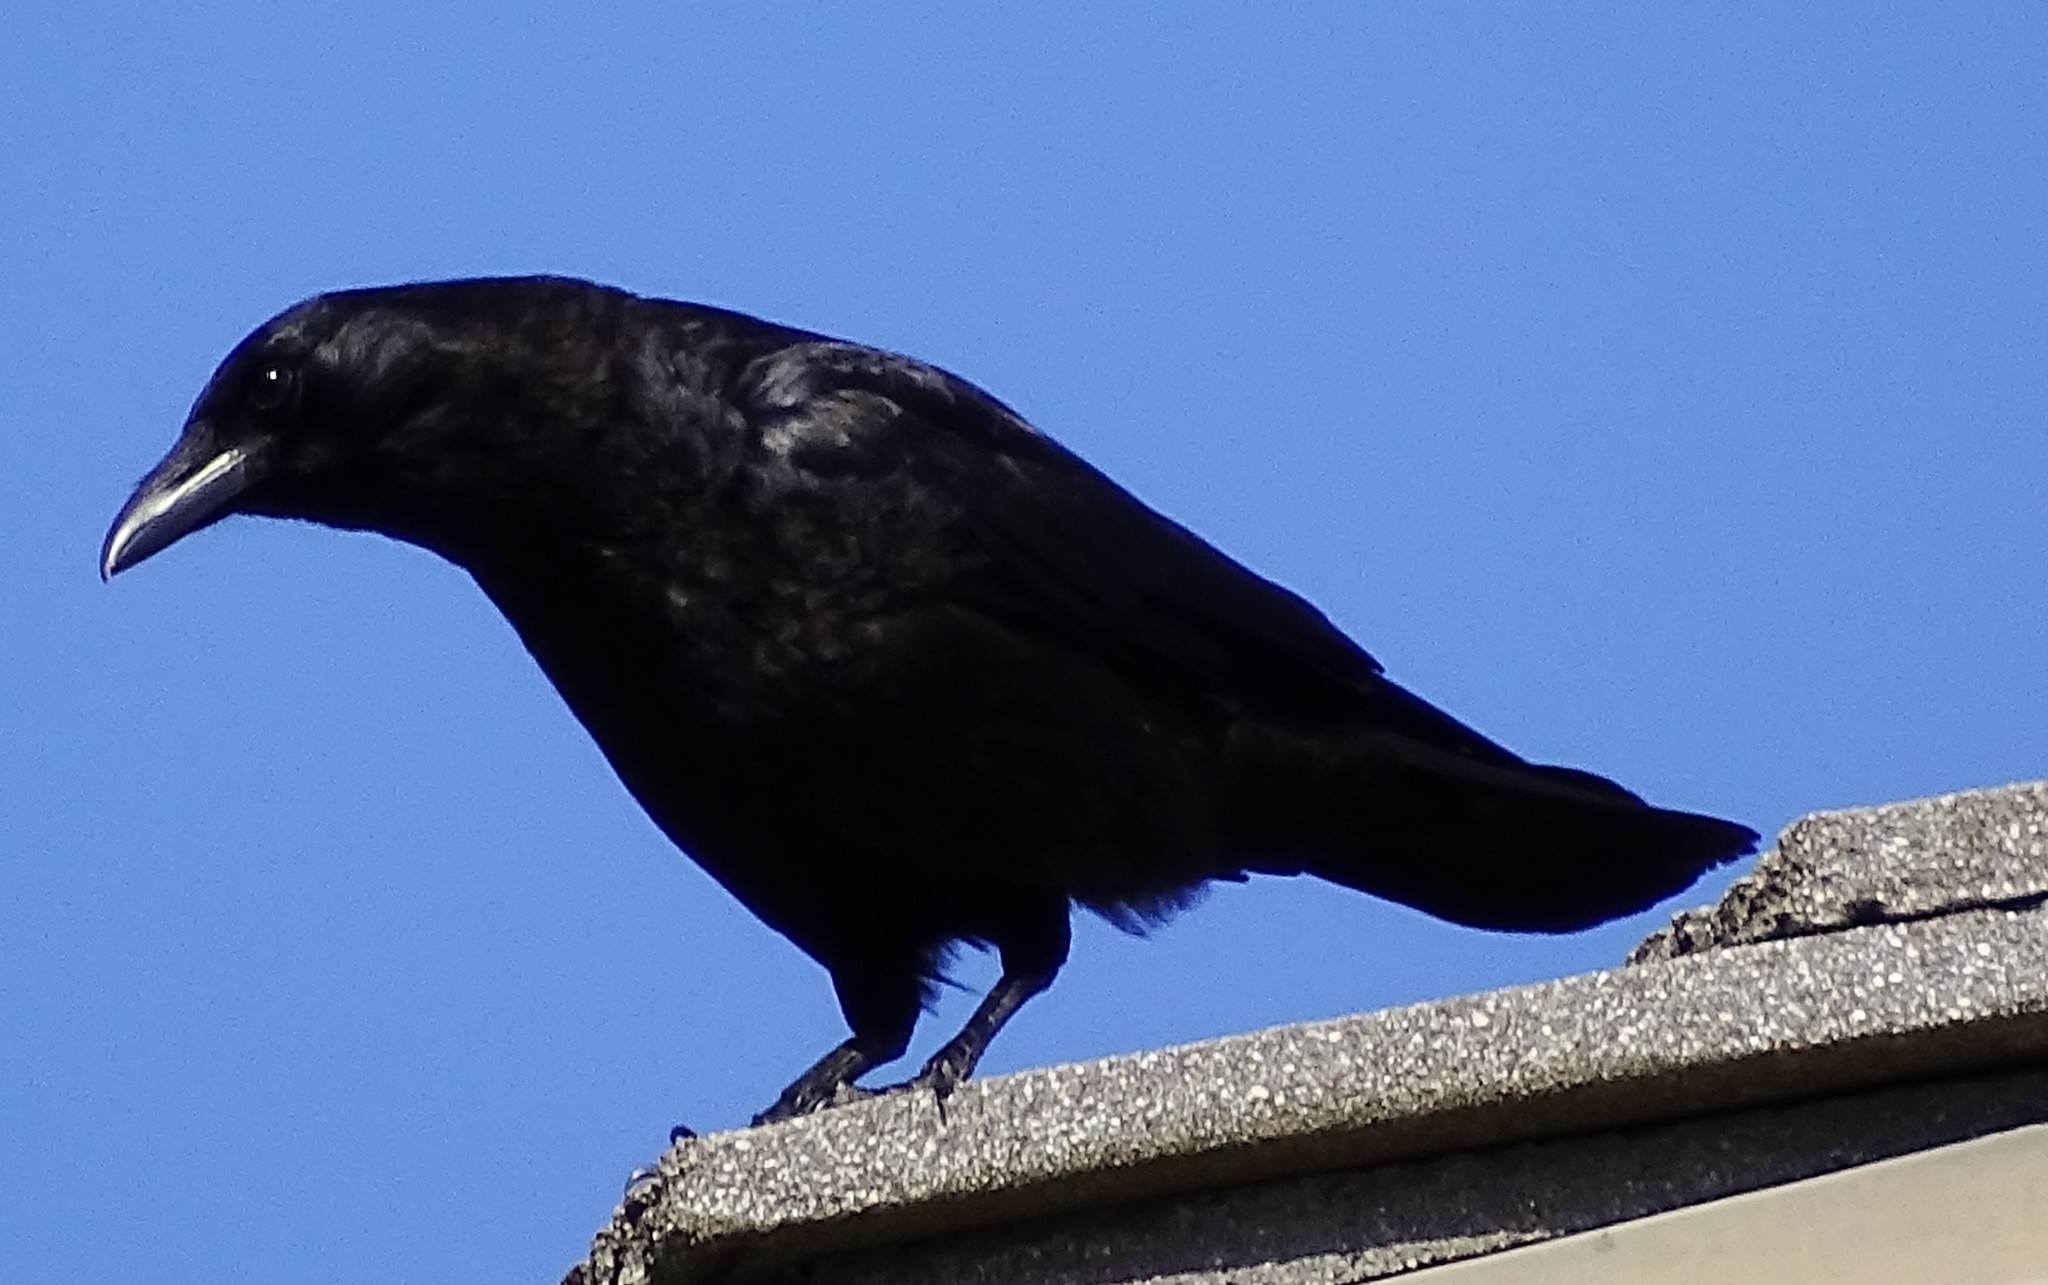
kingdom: Animalia
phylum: Chordata
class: Aves
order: Passeriformes
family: Corvidae
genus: Corvus
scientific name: Corvus brachyrhynchos
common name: American crow
